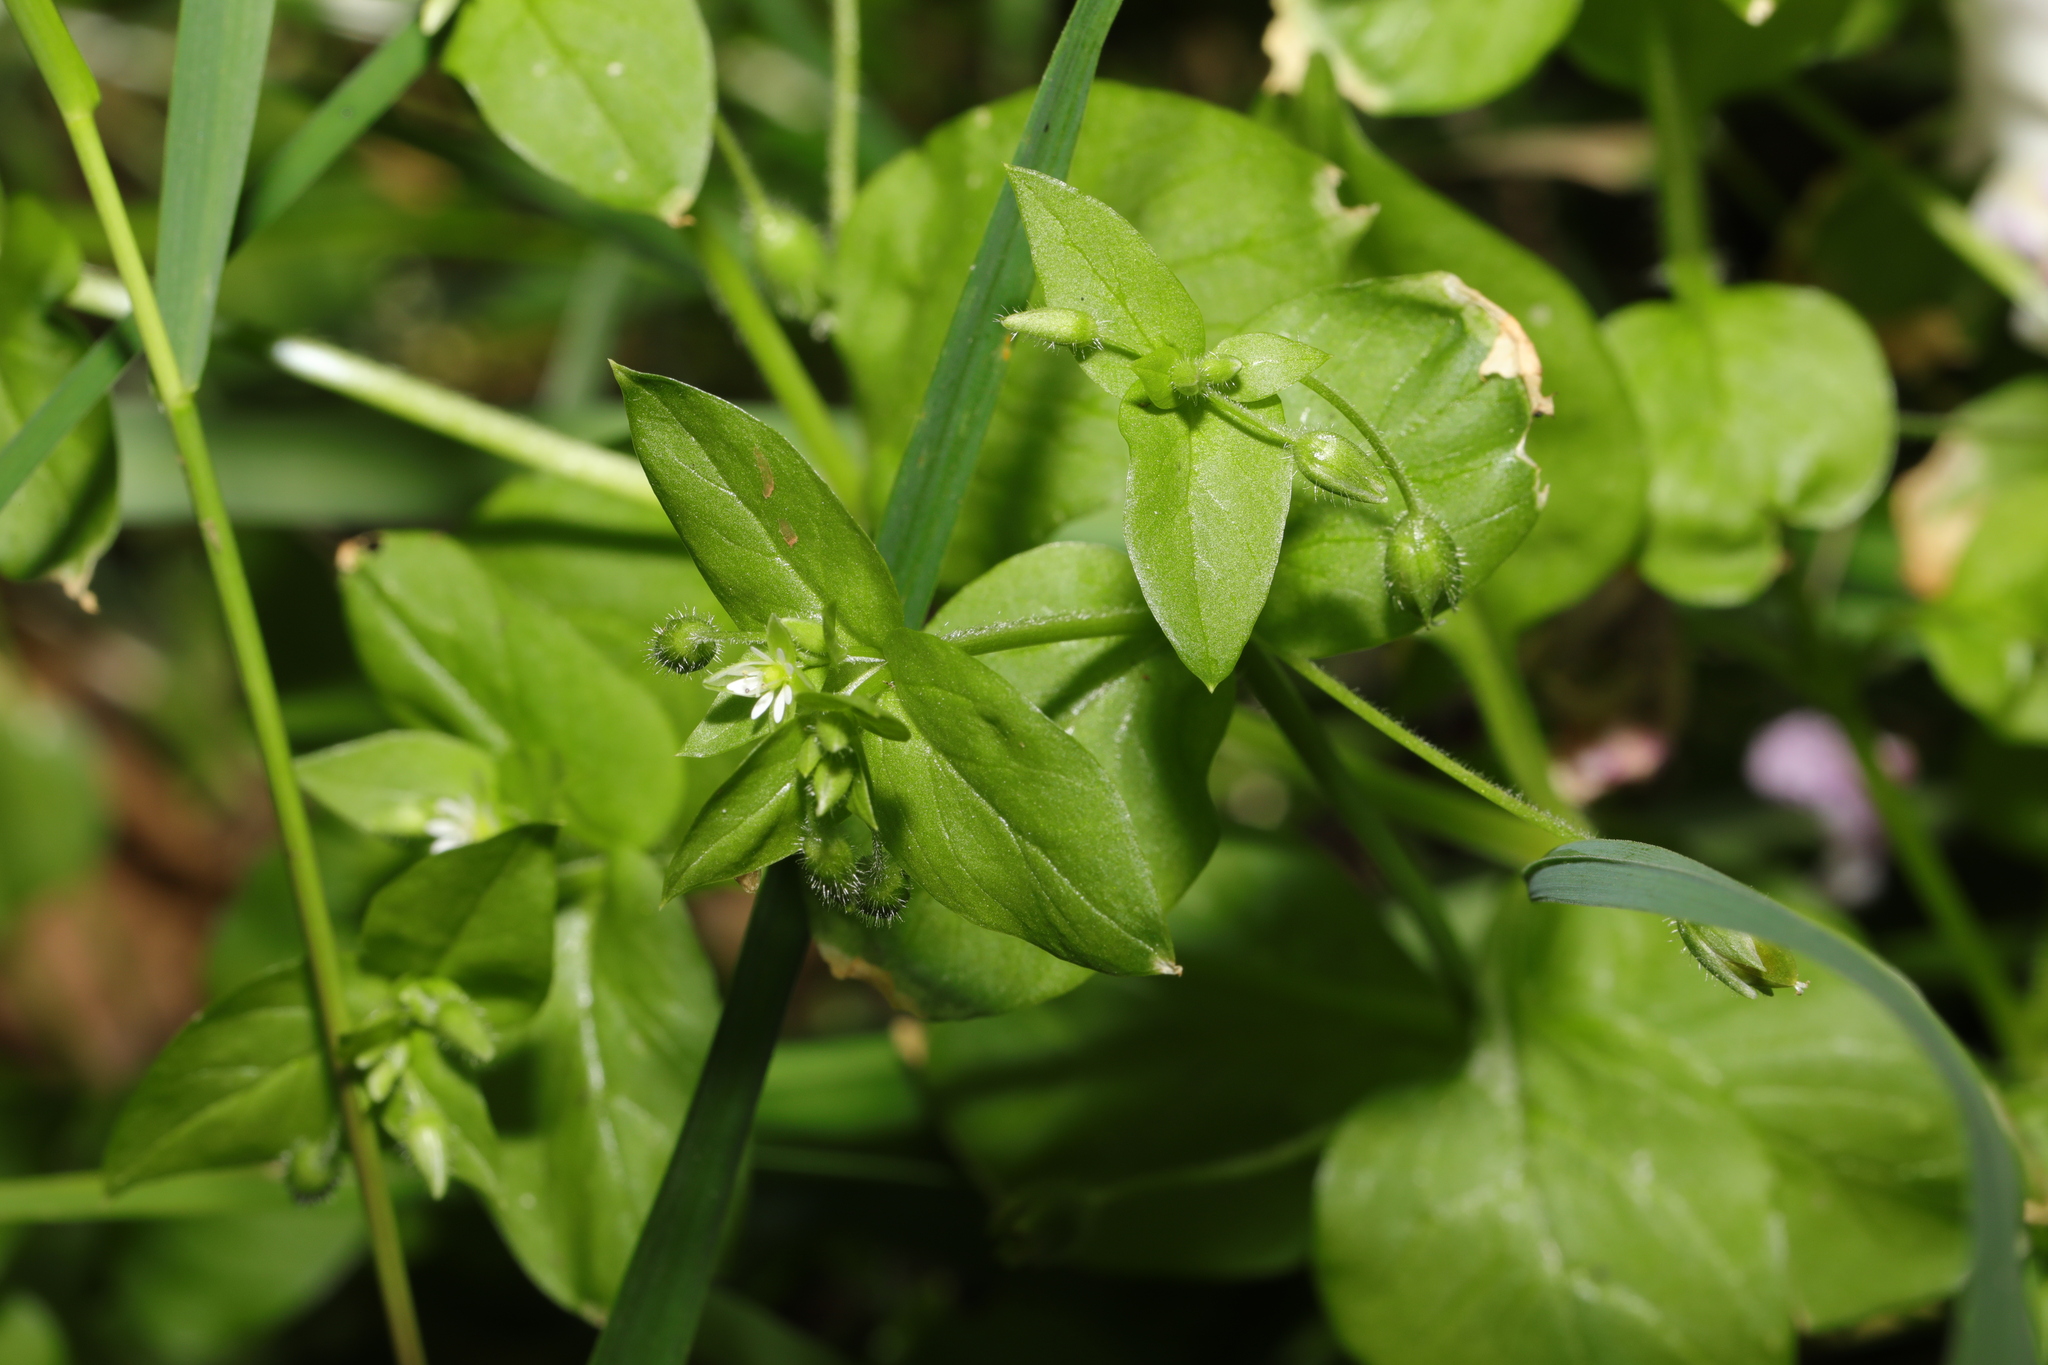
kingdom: Plantae
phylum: Tracheophyta
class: Magnoliopsida
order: Caryophyllales
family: Caryophyllaceae
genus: Stellaria
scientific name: Stellaria media
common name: Common chickweed
